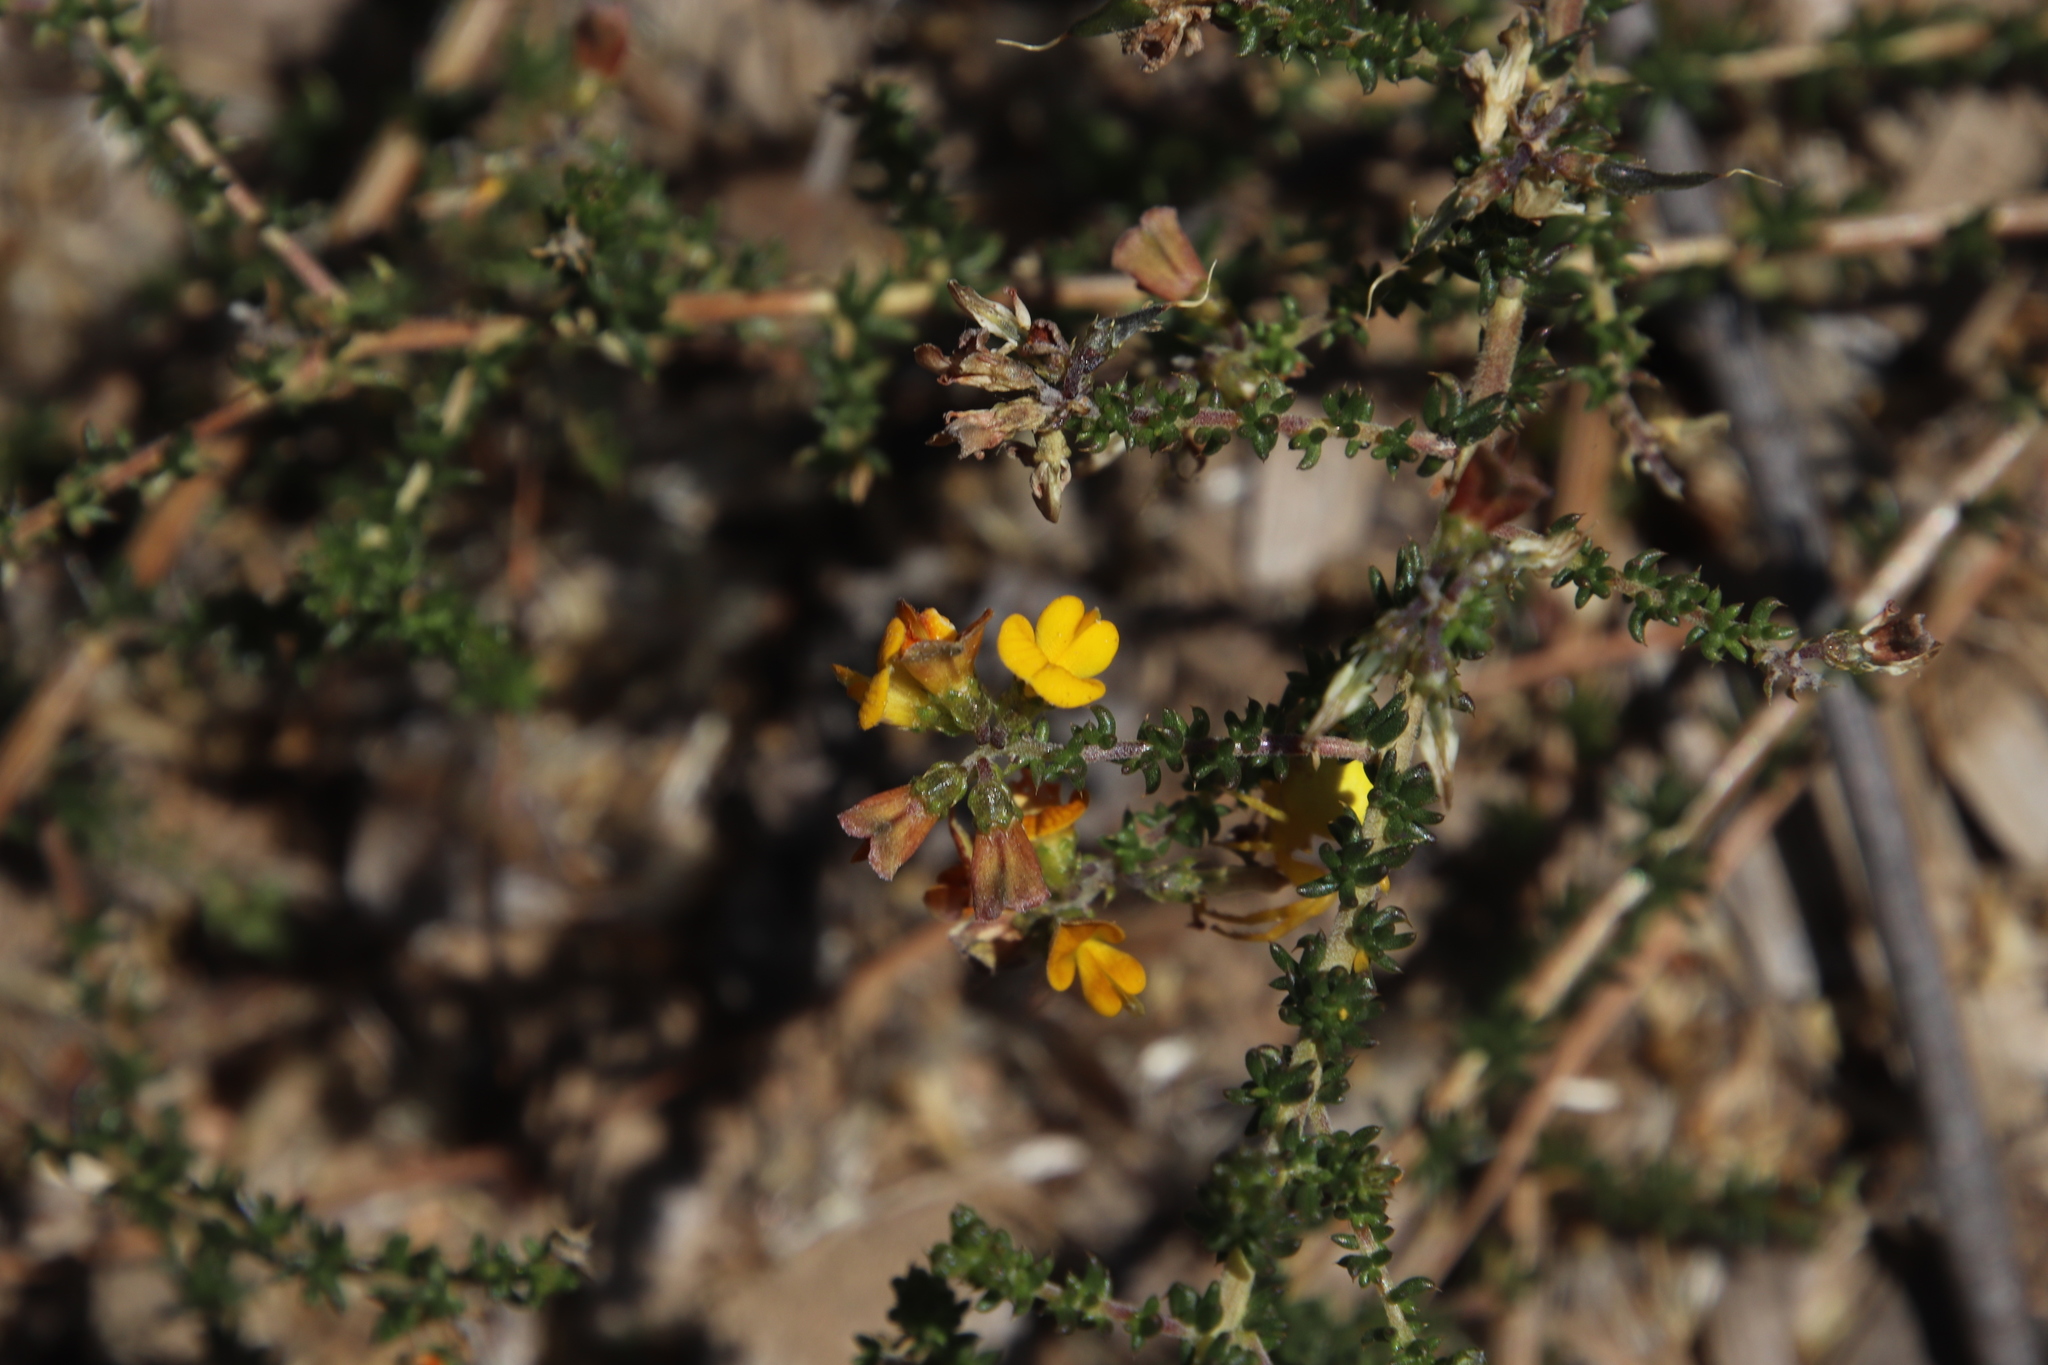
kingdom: Plantae
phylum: Tracheophyta
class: Magnoliopsida
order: Fabales
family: Fabaceae
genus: Aspalathus
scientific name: Aspalathus divaricata
